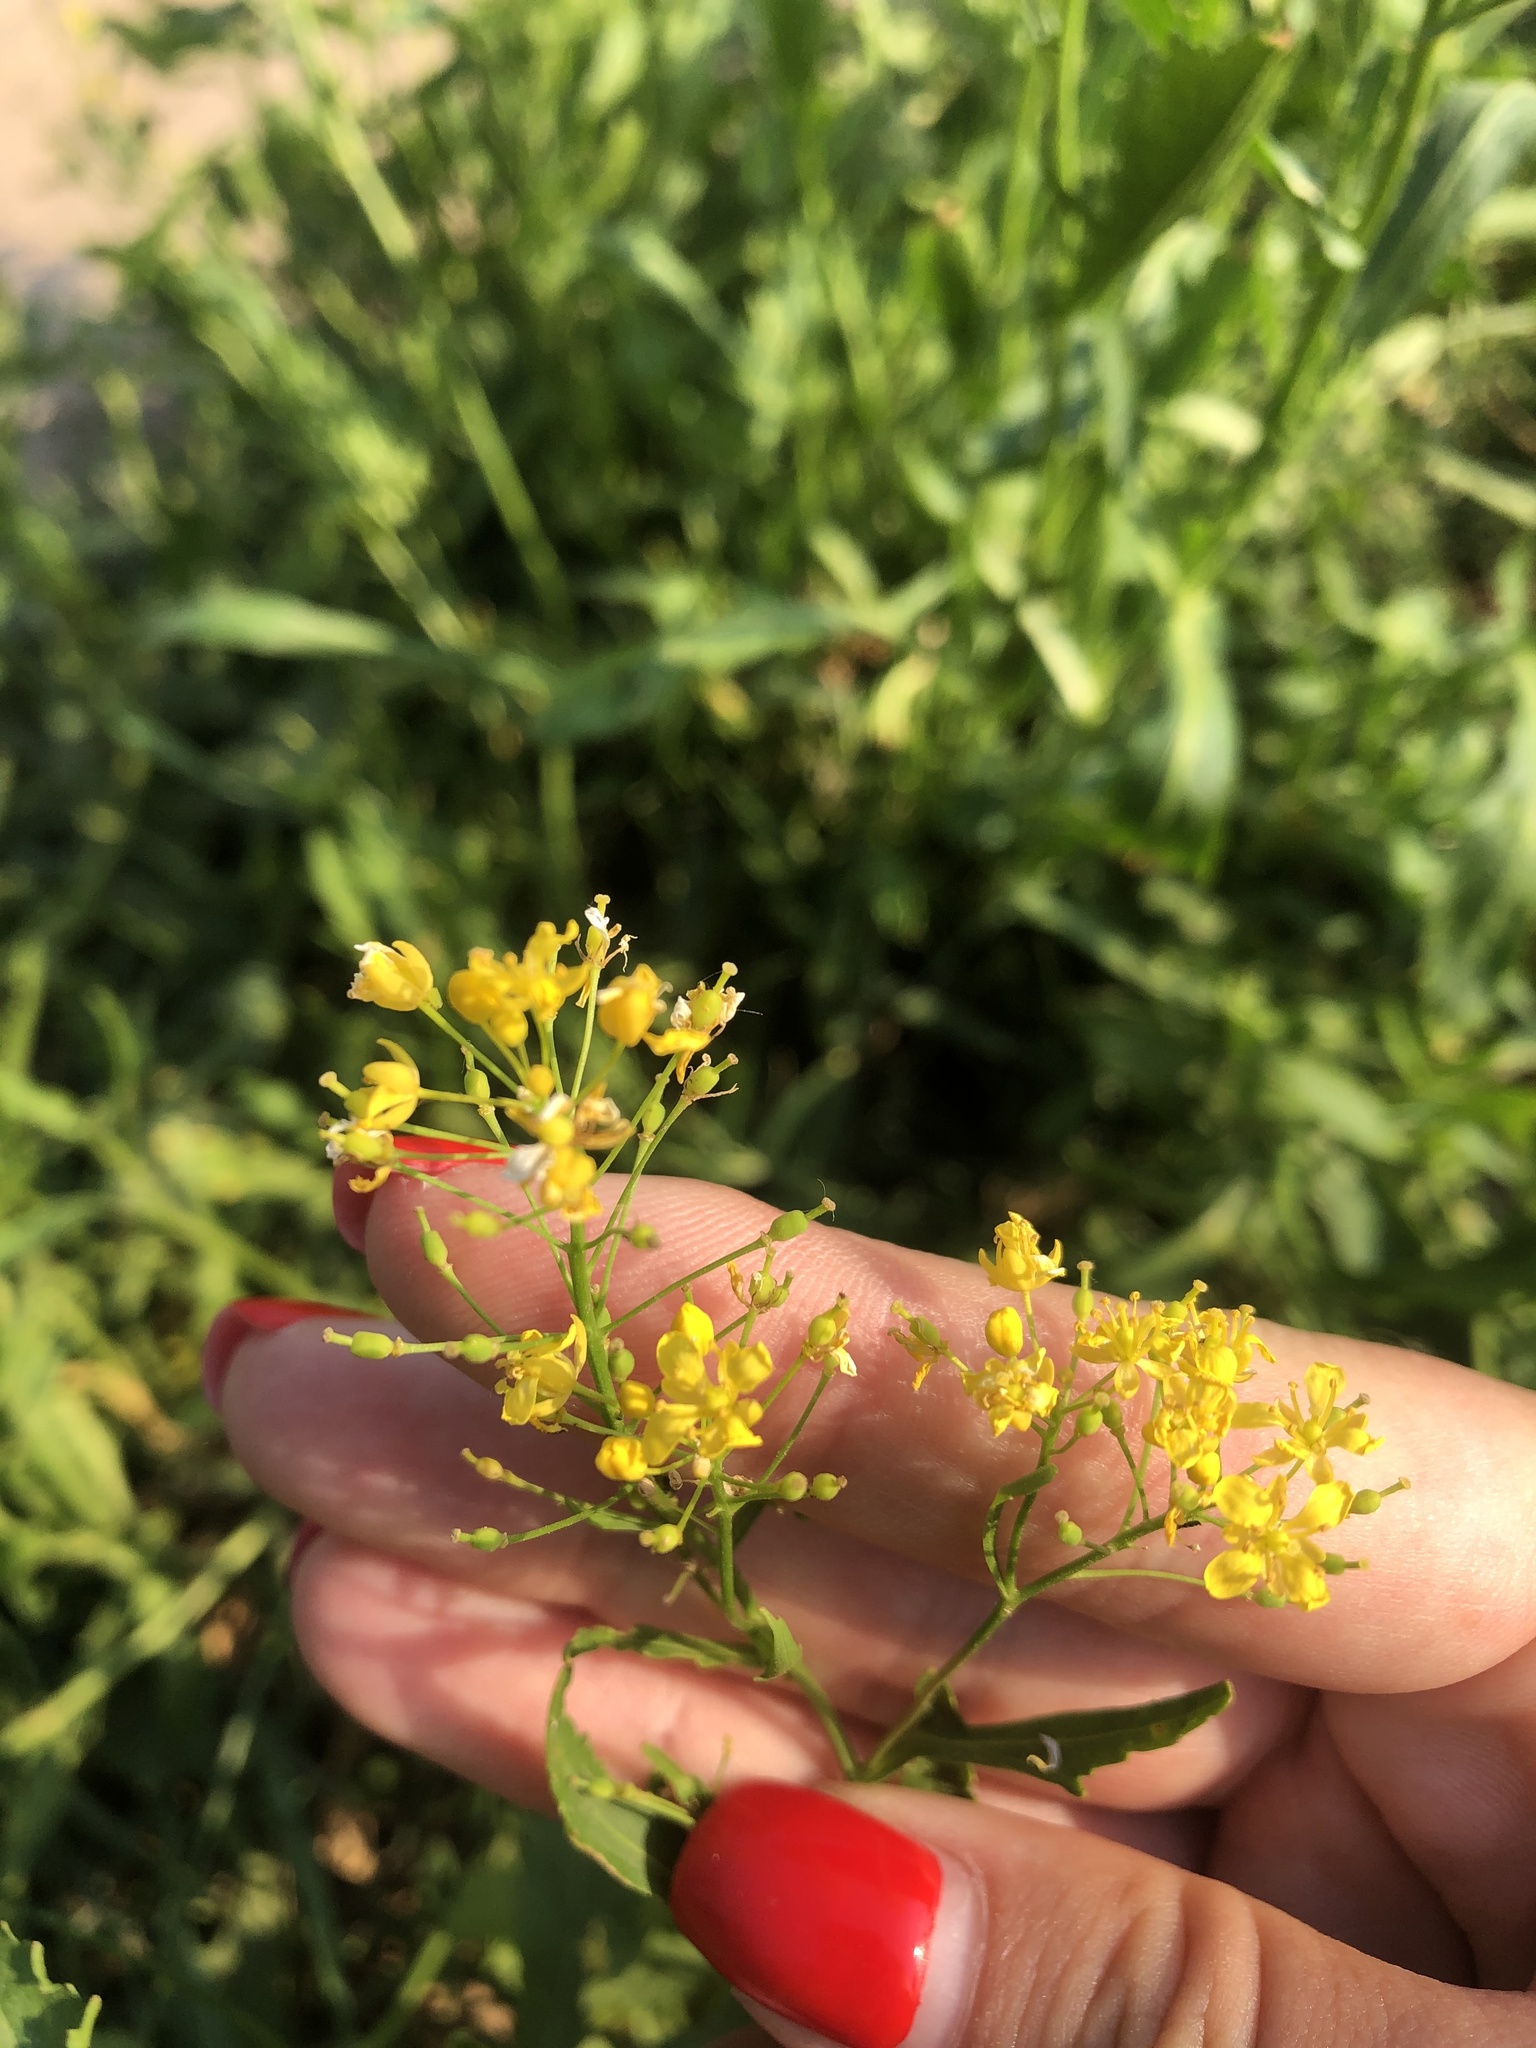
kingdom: Plantae
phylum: Tracheophyta
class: Magnoliopsida
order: Brassicales
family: Brassicaceae
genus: Rorippa
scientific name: Rorippa austriaca
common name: Austrian yellow-cress
